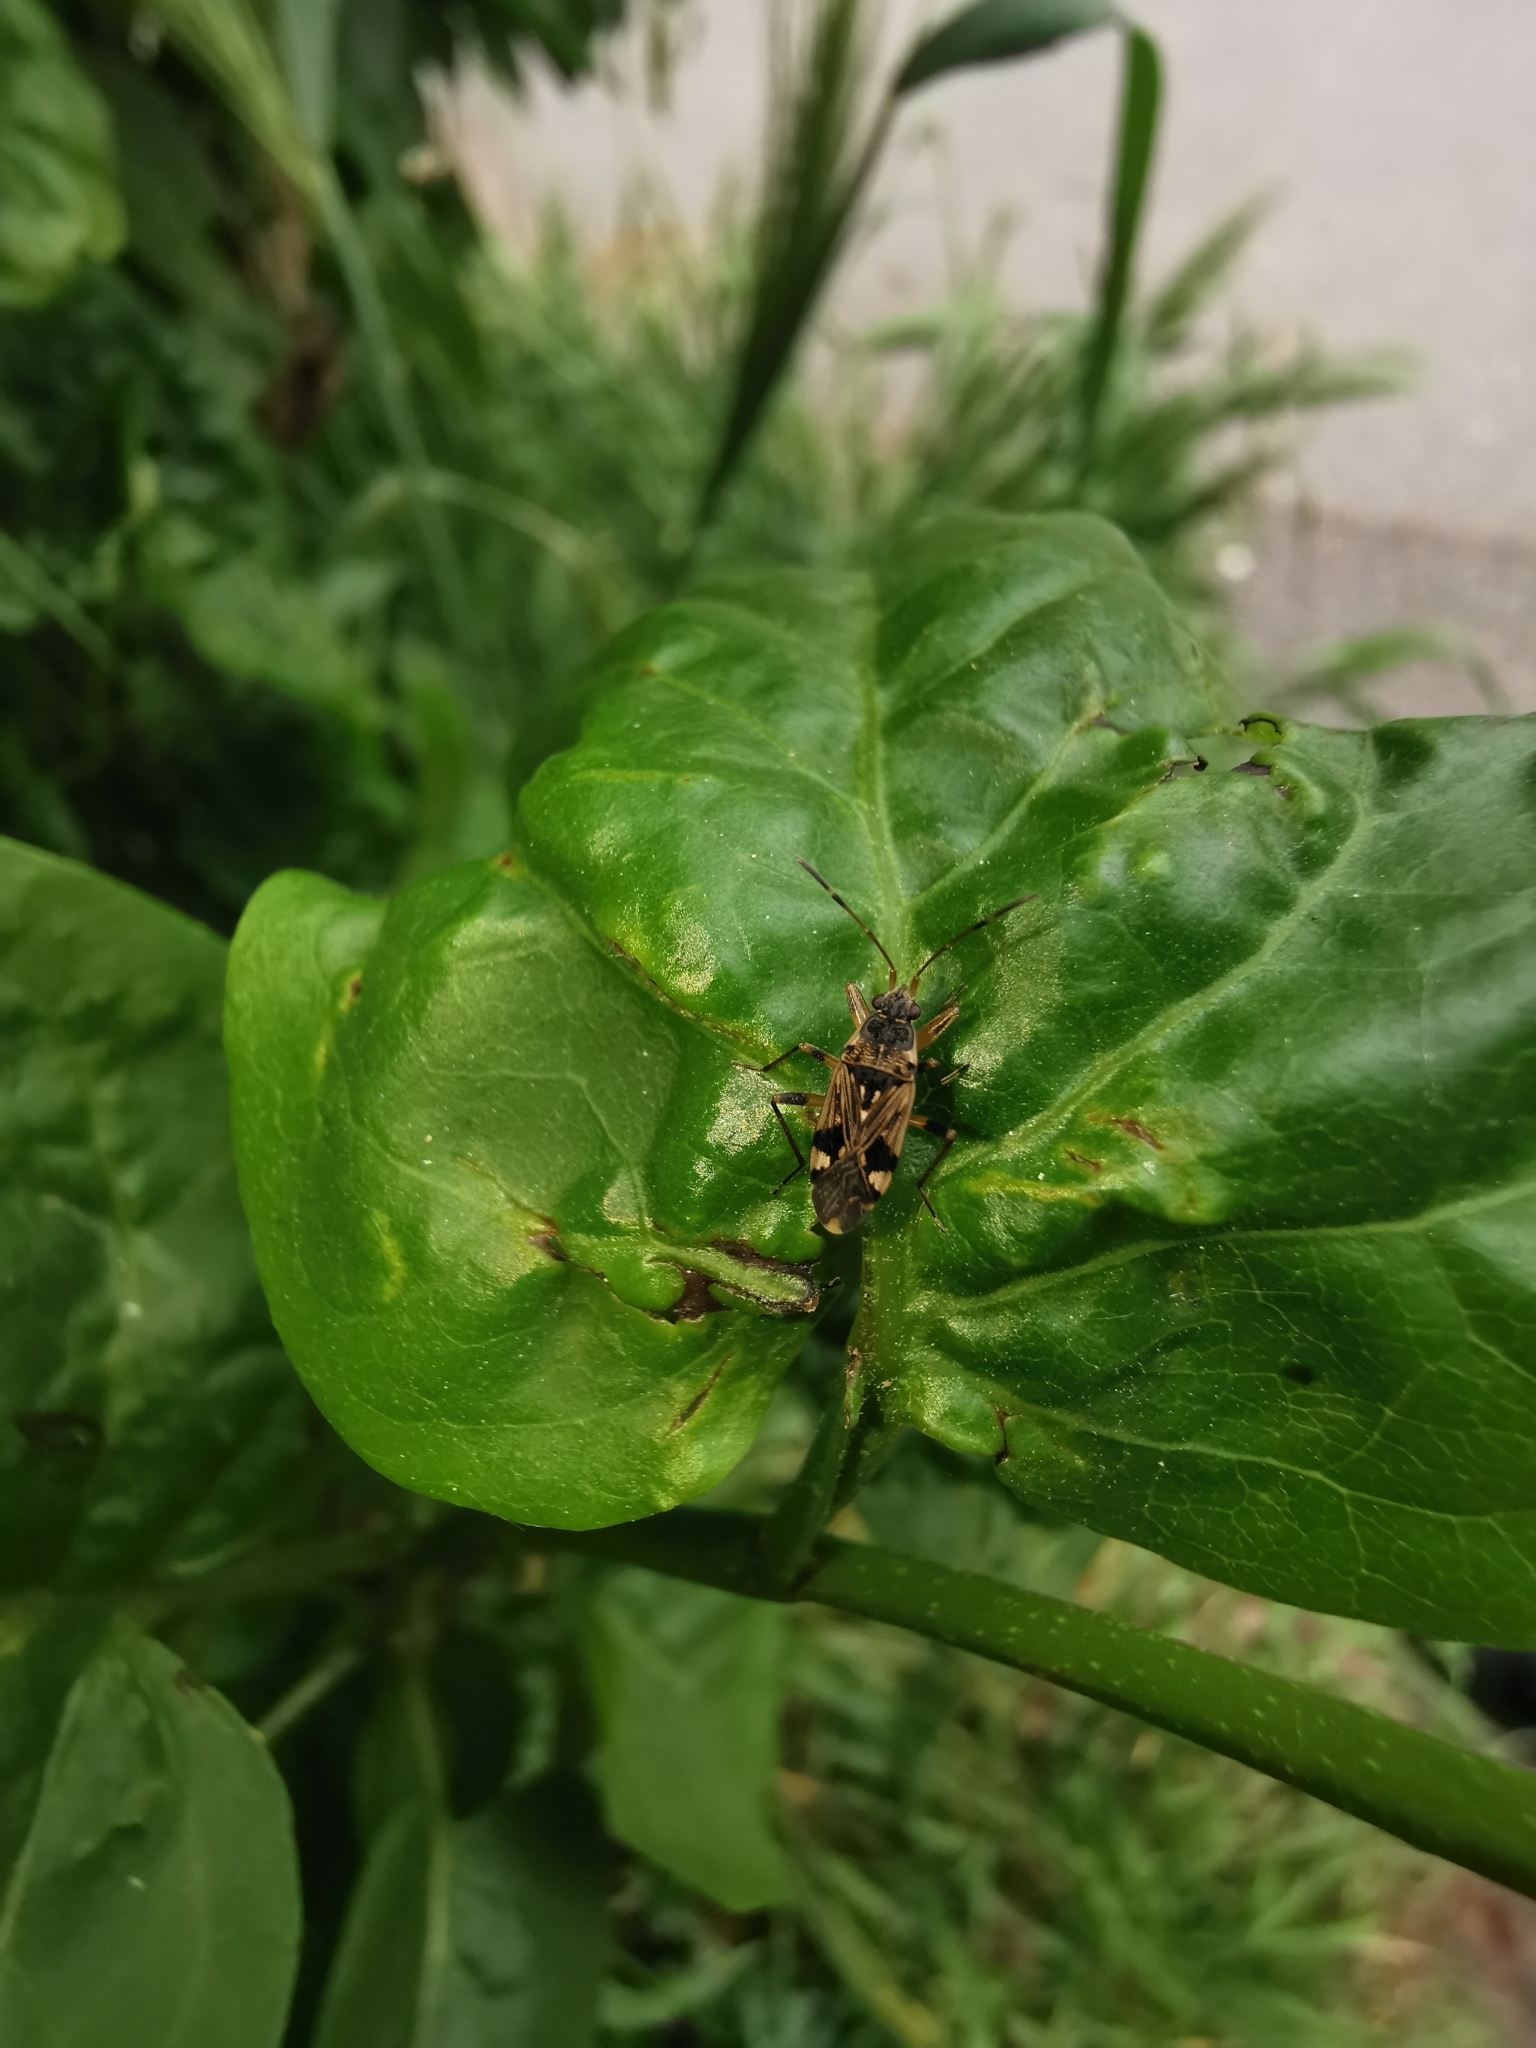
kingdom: Animalia
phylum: Arthropoda
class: Insecta
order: Hemiptera
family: Rhyparochromidae
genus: Beosus
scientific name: Beosus maritimus
